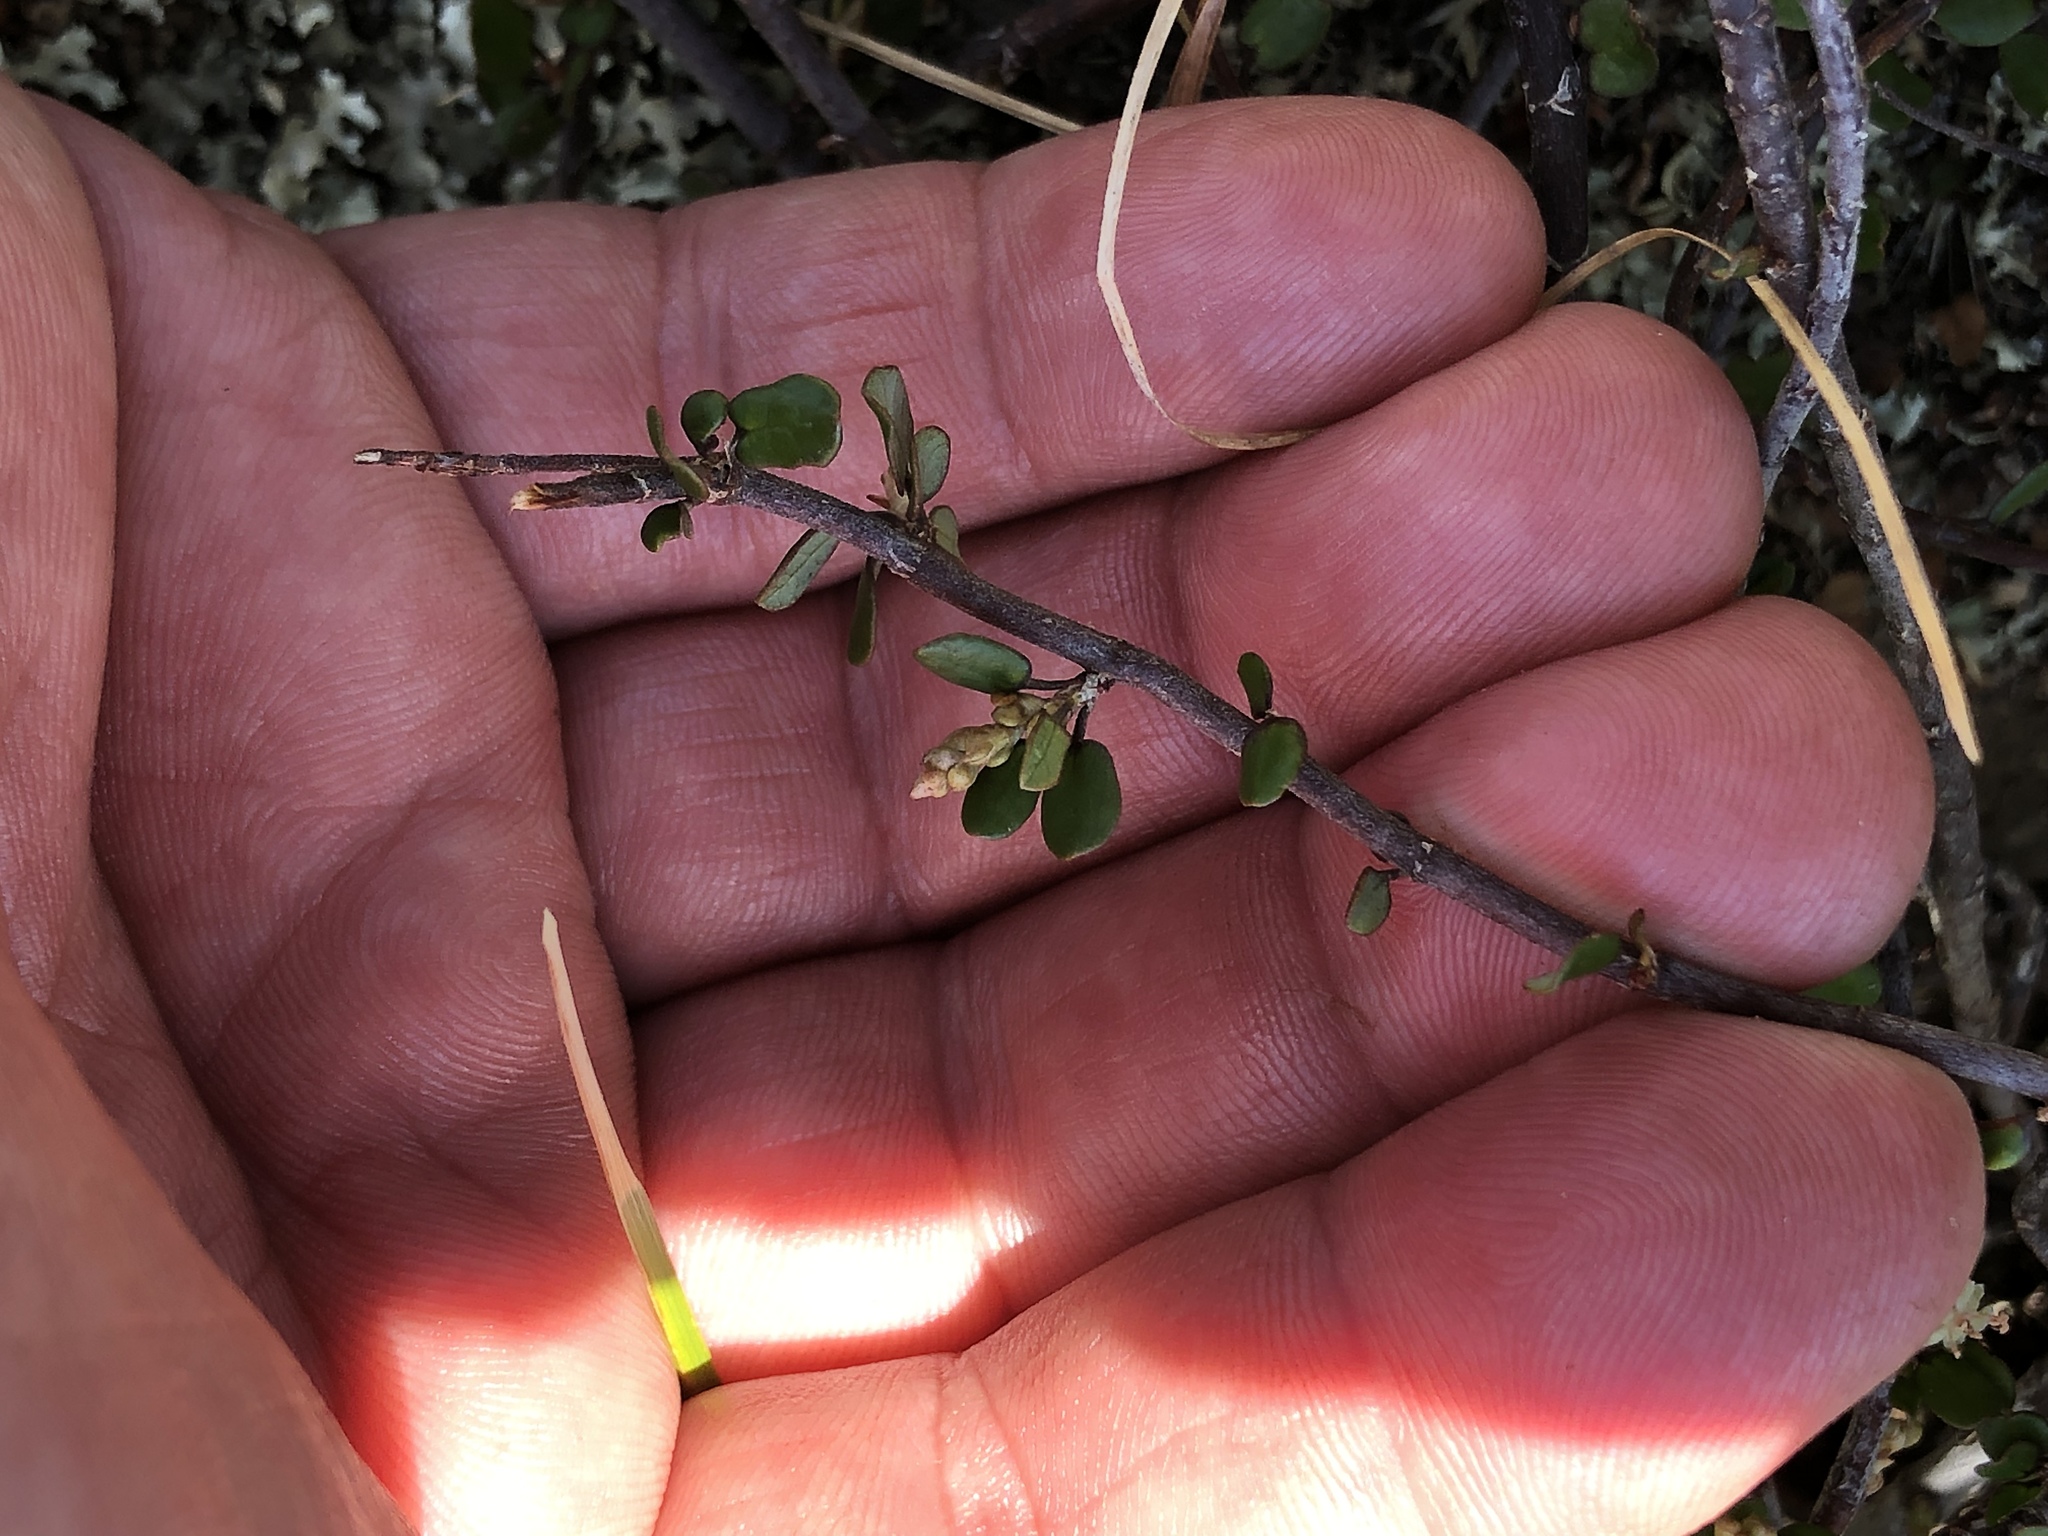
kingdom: Plantae
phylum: Tracheophyta
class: Magnoliopsida
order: Caryophyllales
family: Polygonaceae
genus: Muehlenbeckia
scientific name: Muehlenbeckia complexa
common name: Wireplant
